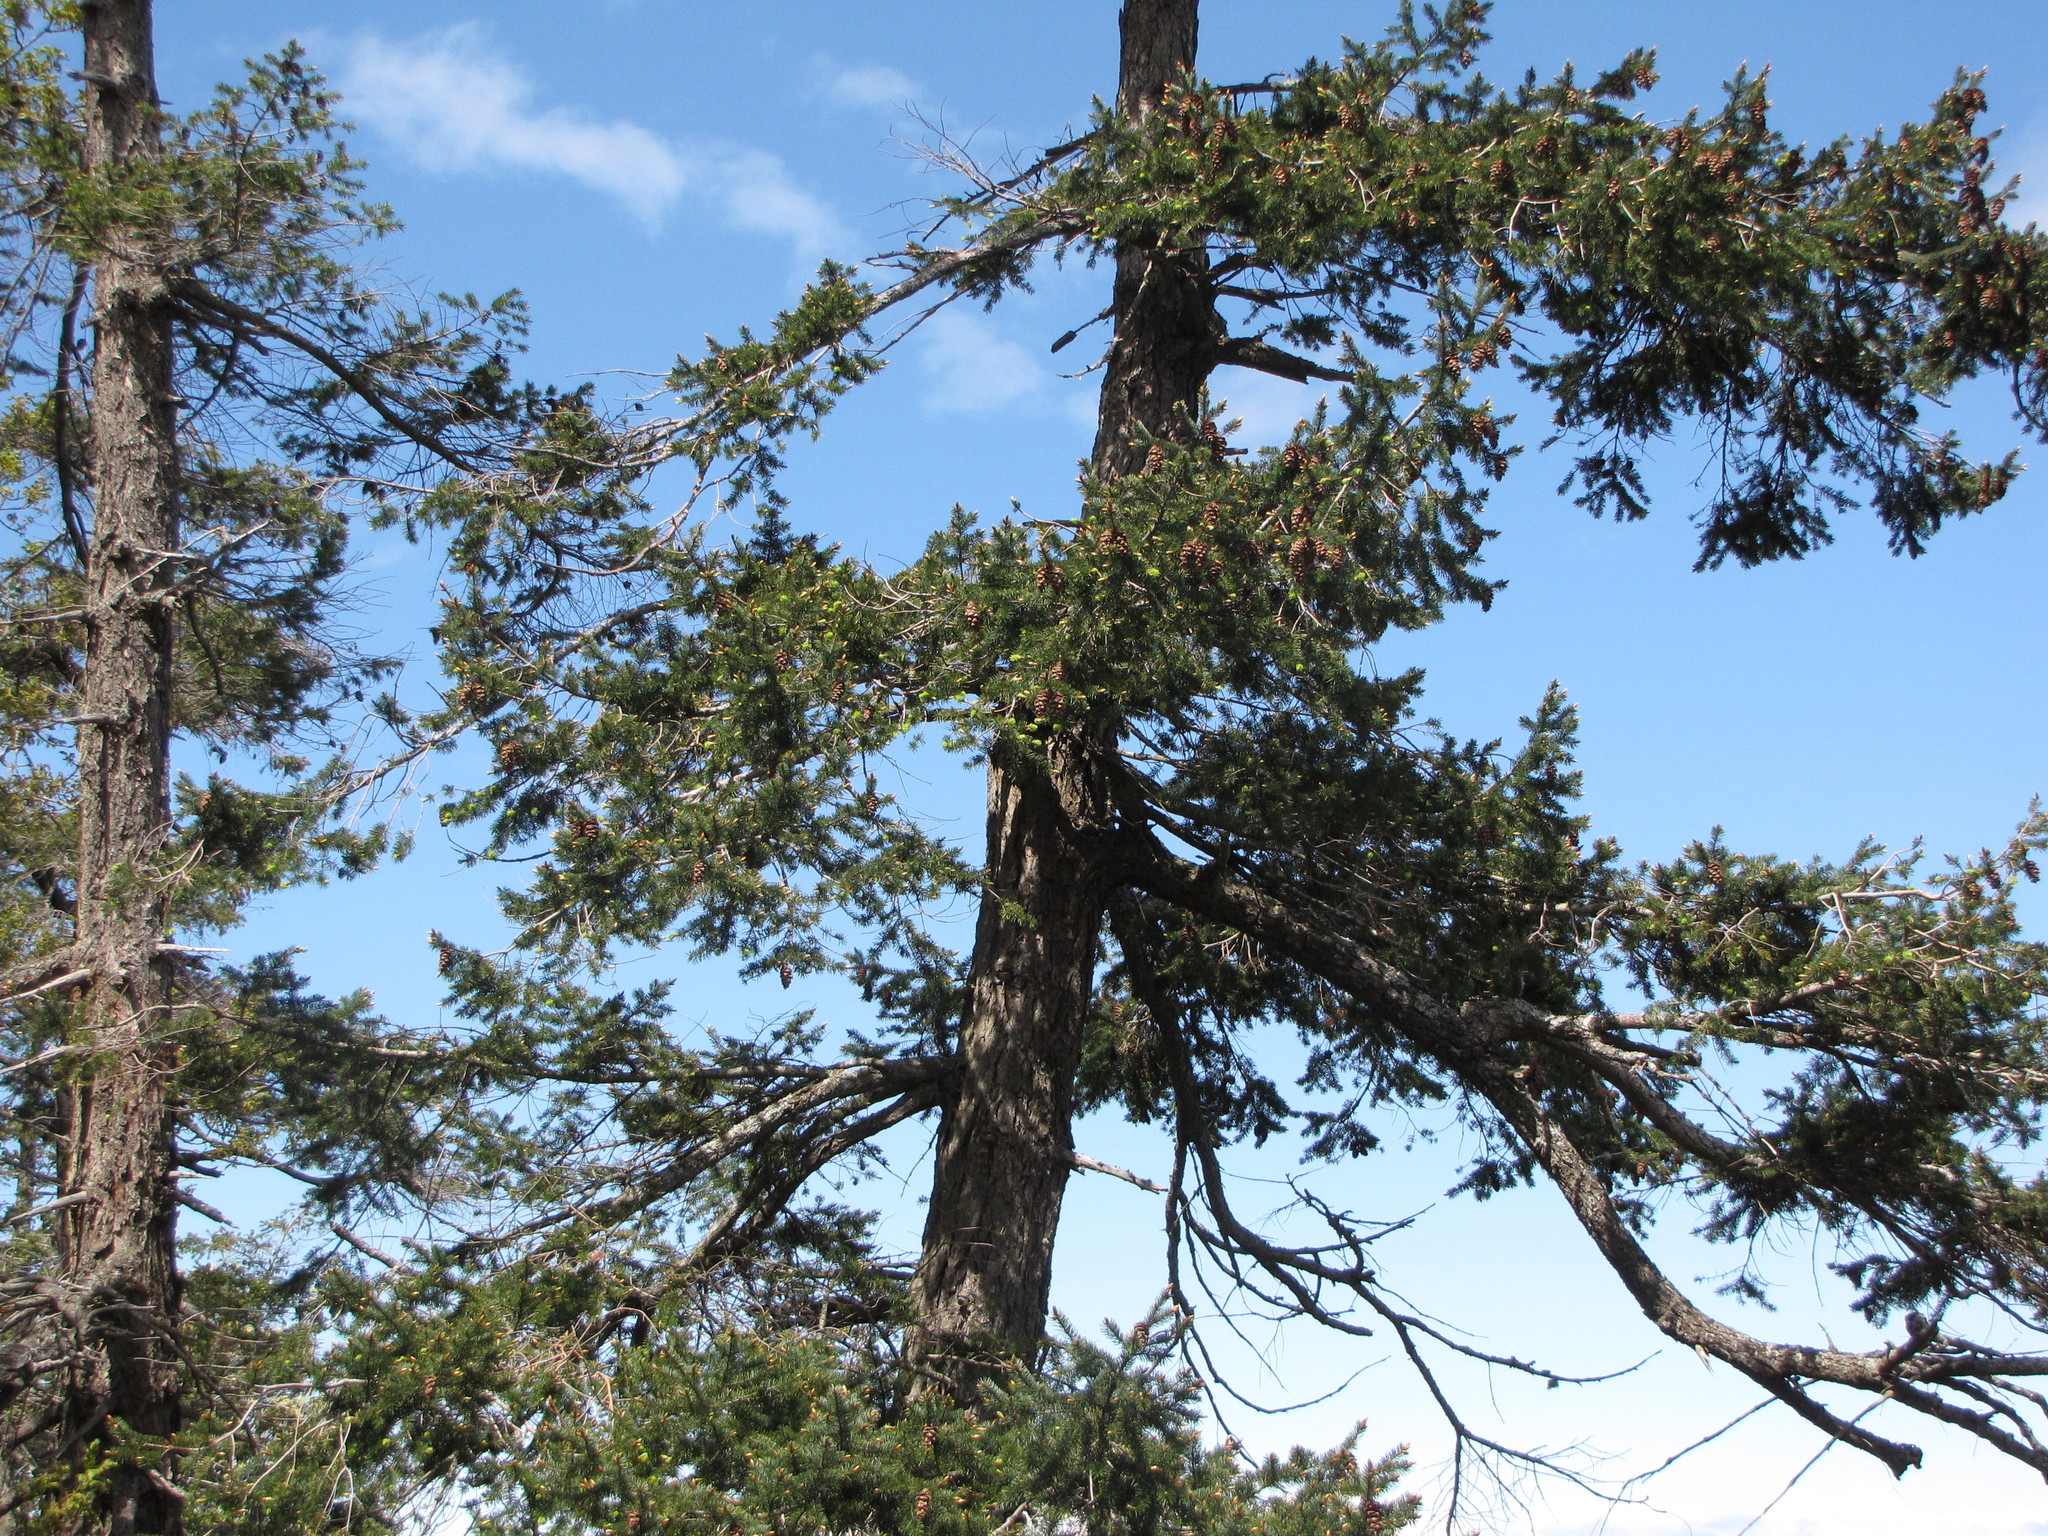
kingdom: Plantae
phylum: Tracheophyta
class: Pinopsida
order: Pinales
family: Pinaceae
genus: Pseudotsuga
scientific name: Pseudotsuga menziesii
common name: Douglas fir
